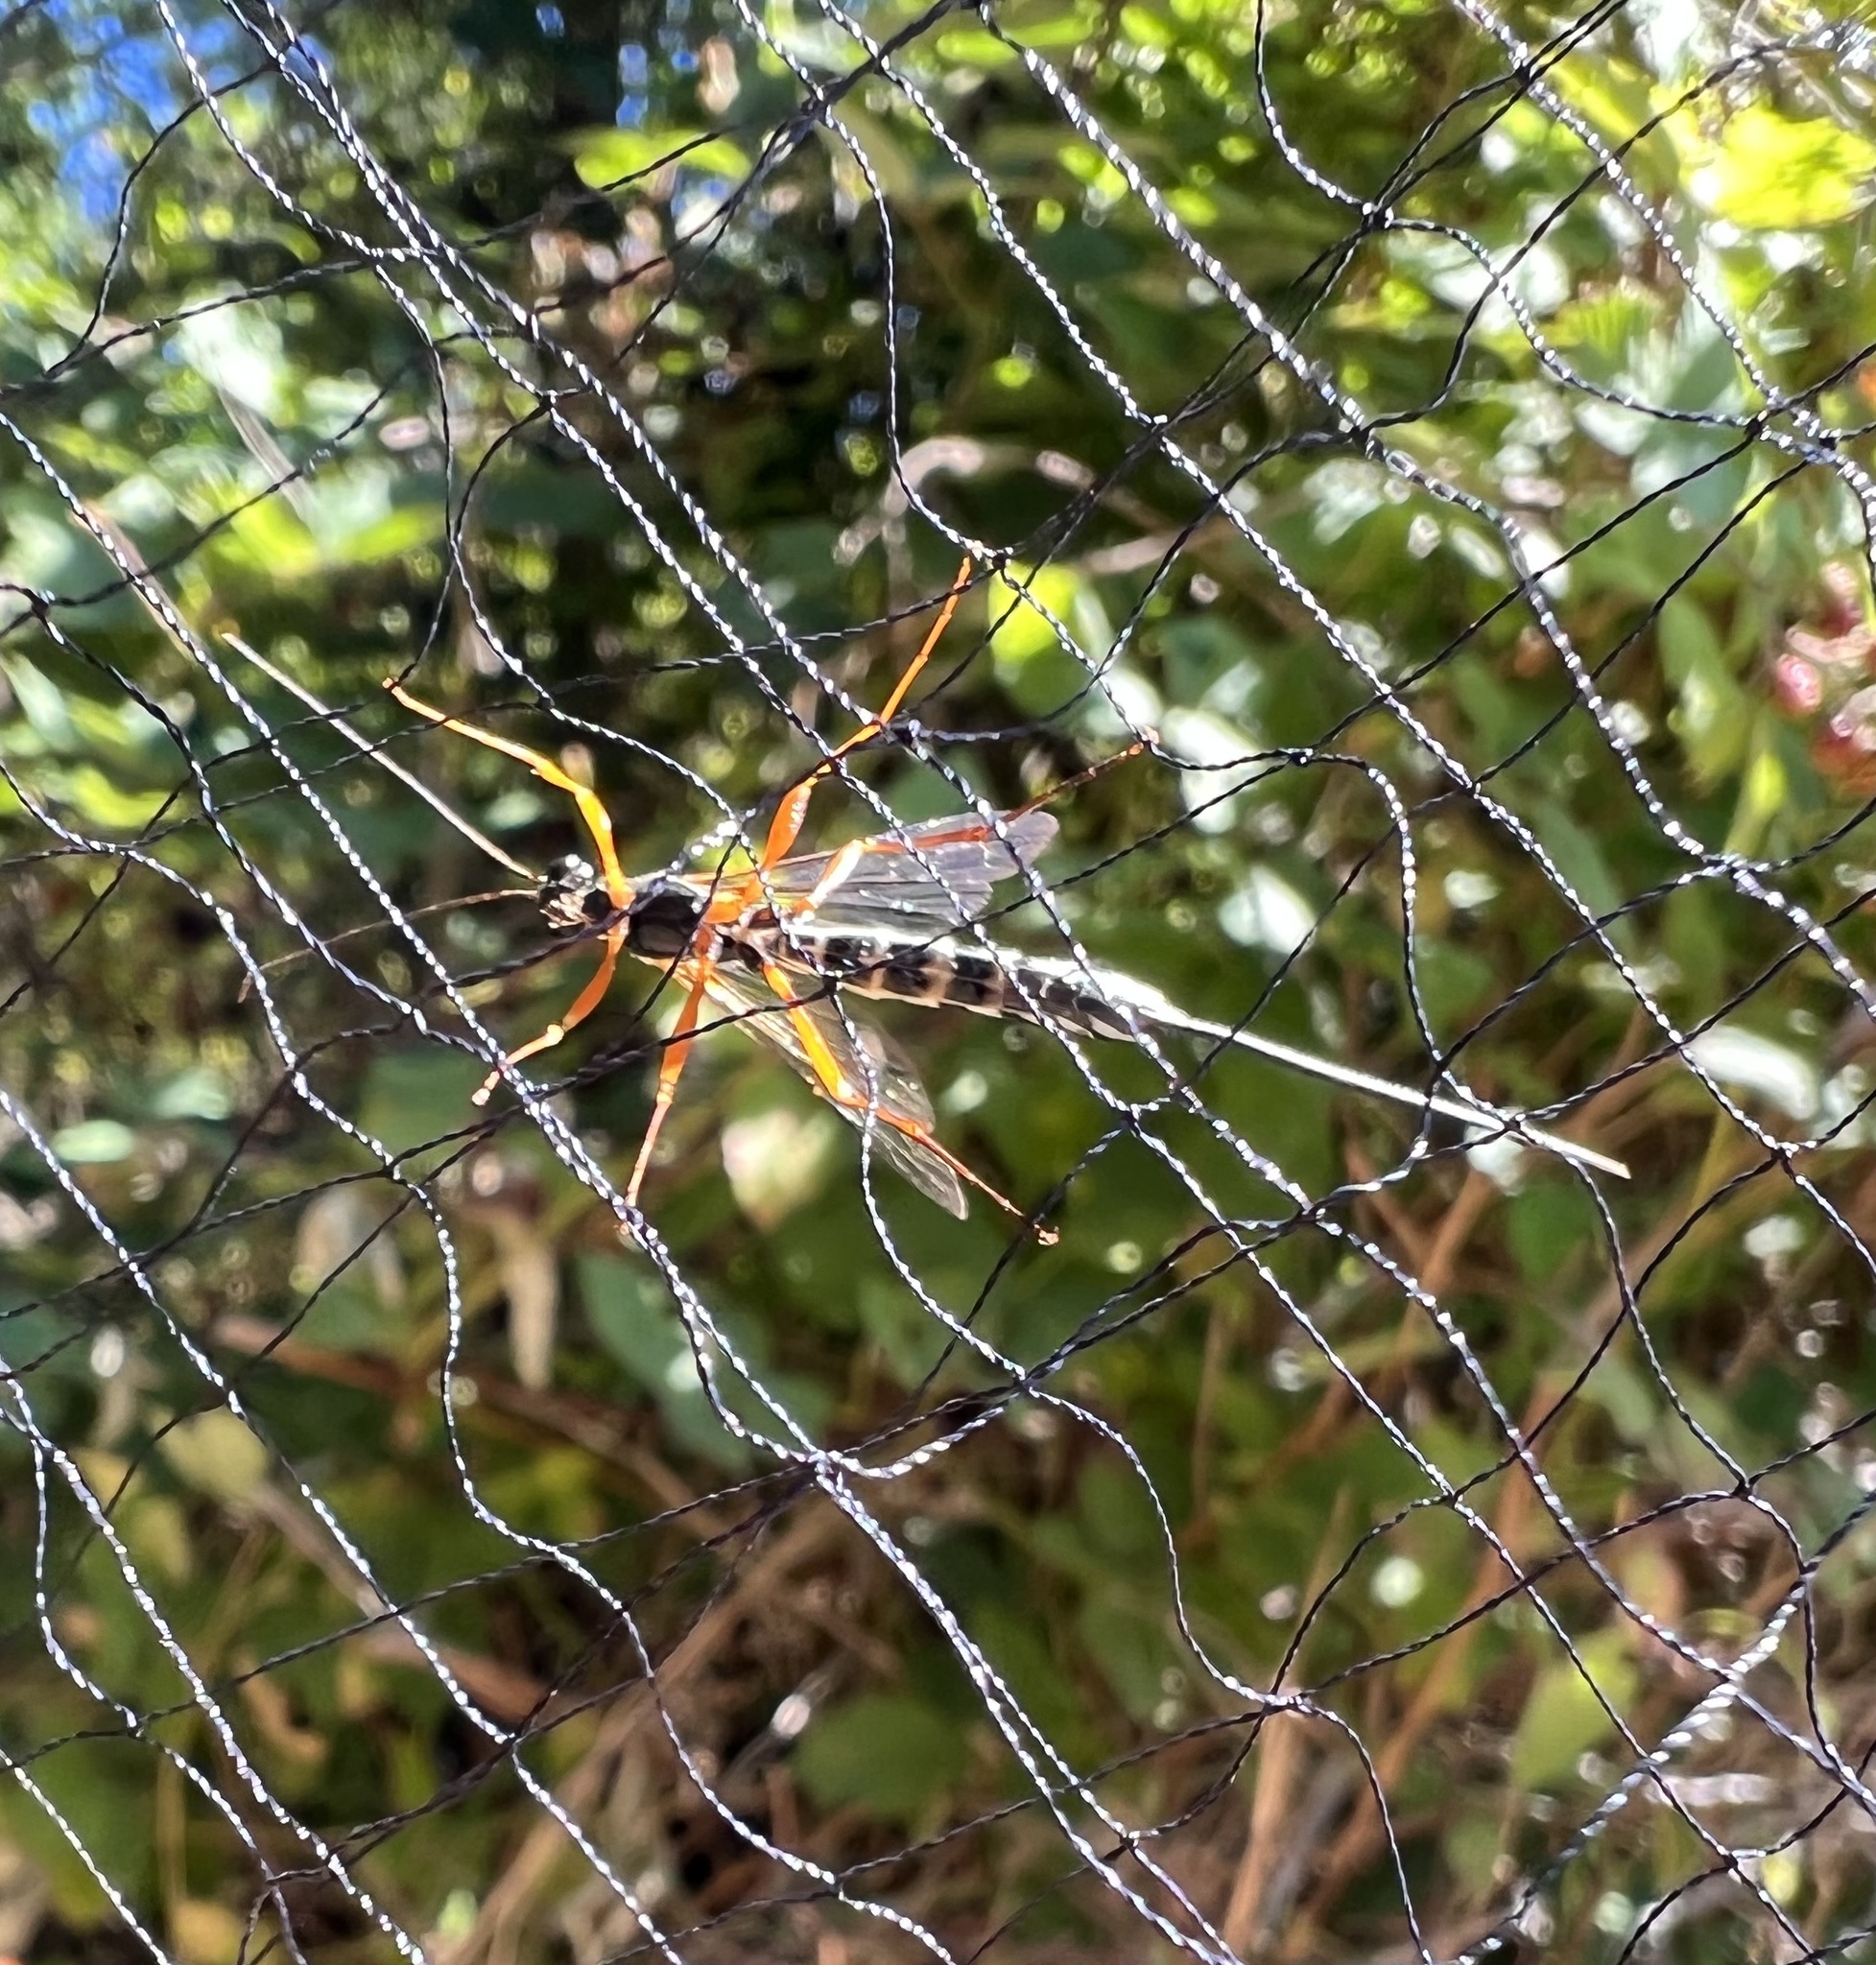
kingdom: Animalia
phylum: Arthropoda
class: Insecta
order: Hymenoptera
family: Ichneumonidae
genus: Rhyssa
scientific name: Rhyssa
